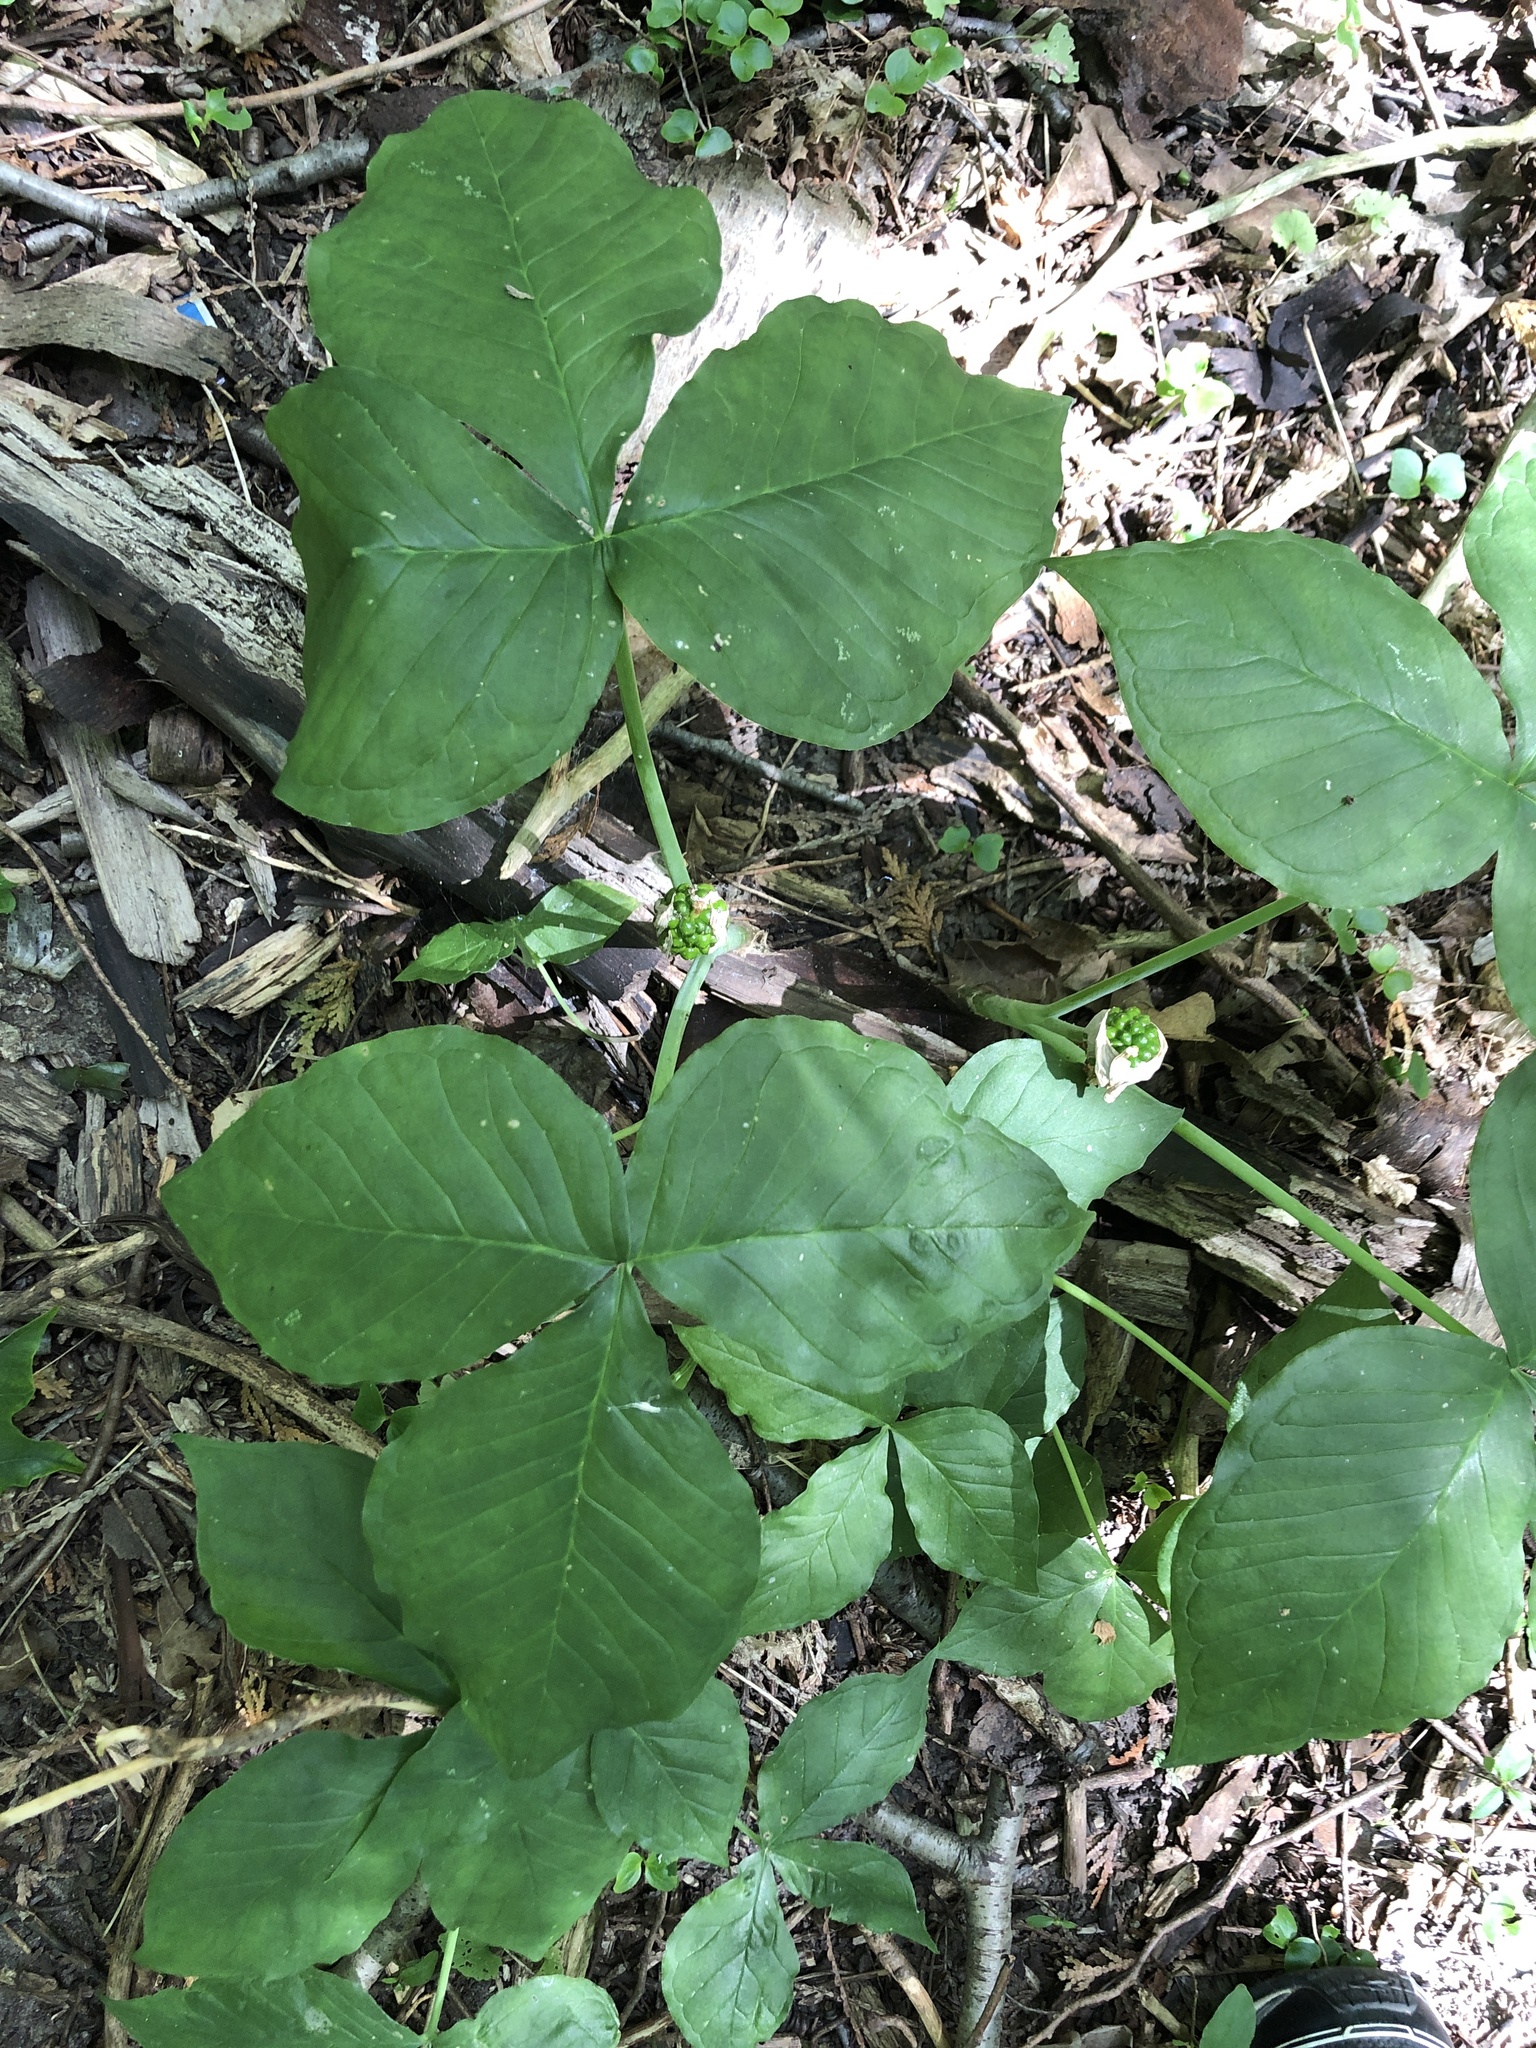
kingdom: Plantae
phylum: Tracheophyta
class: Liliopsida
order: Alismatales
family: Araceae
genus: Arisaema
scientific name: Arisaema triphyllum
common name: Jack-in-the-pulpit
